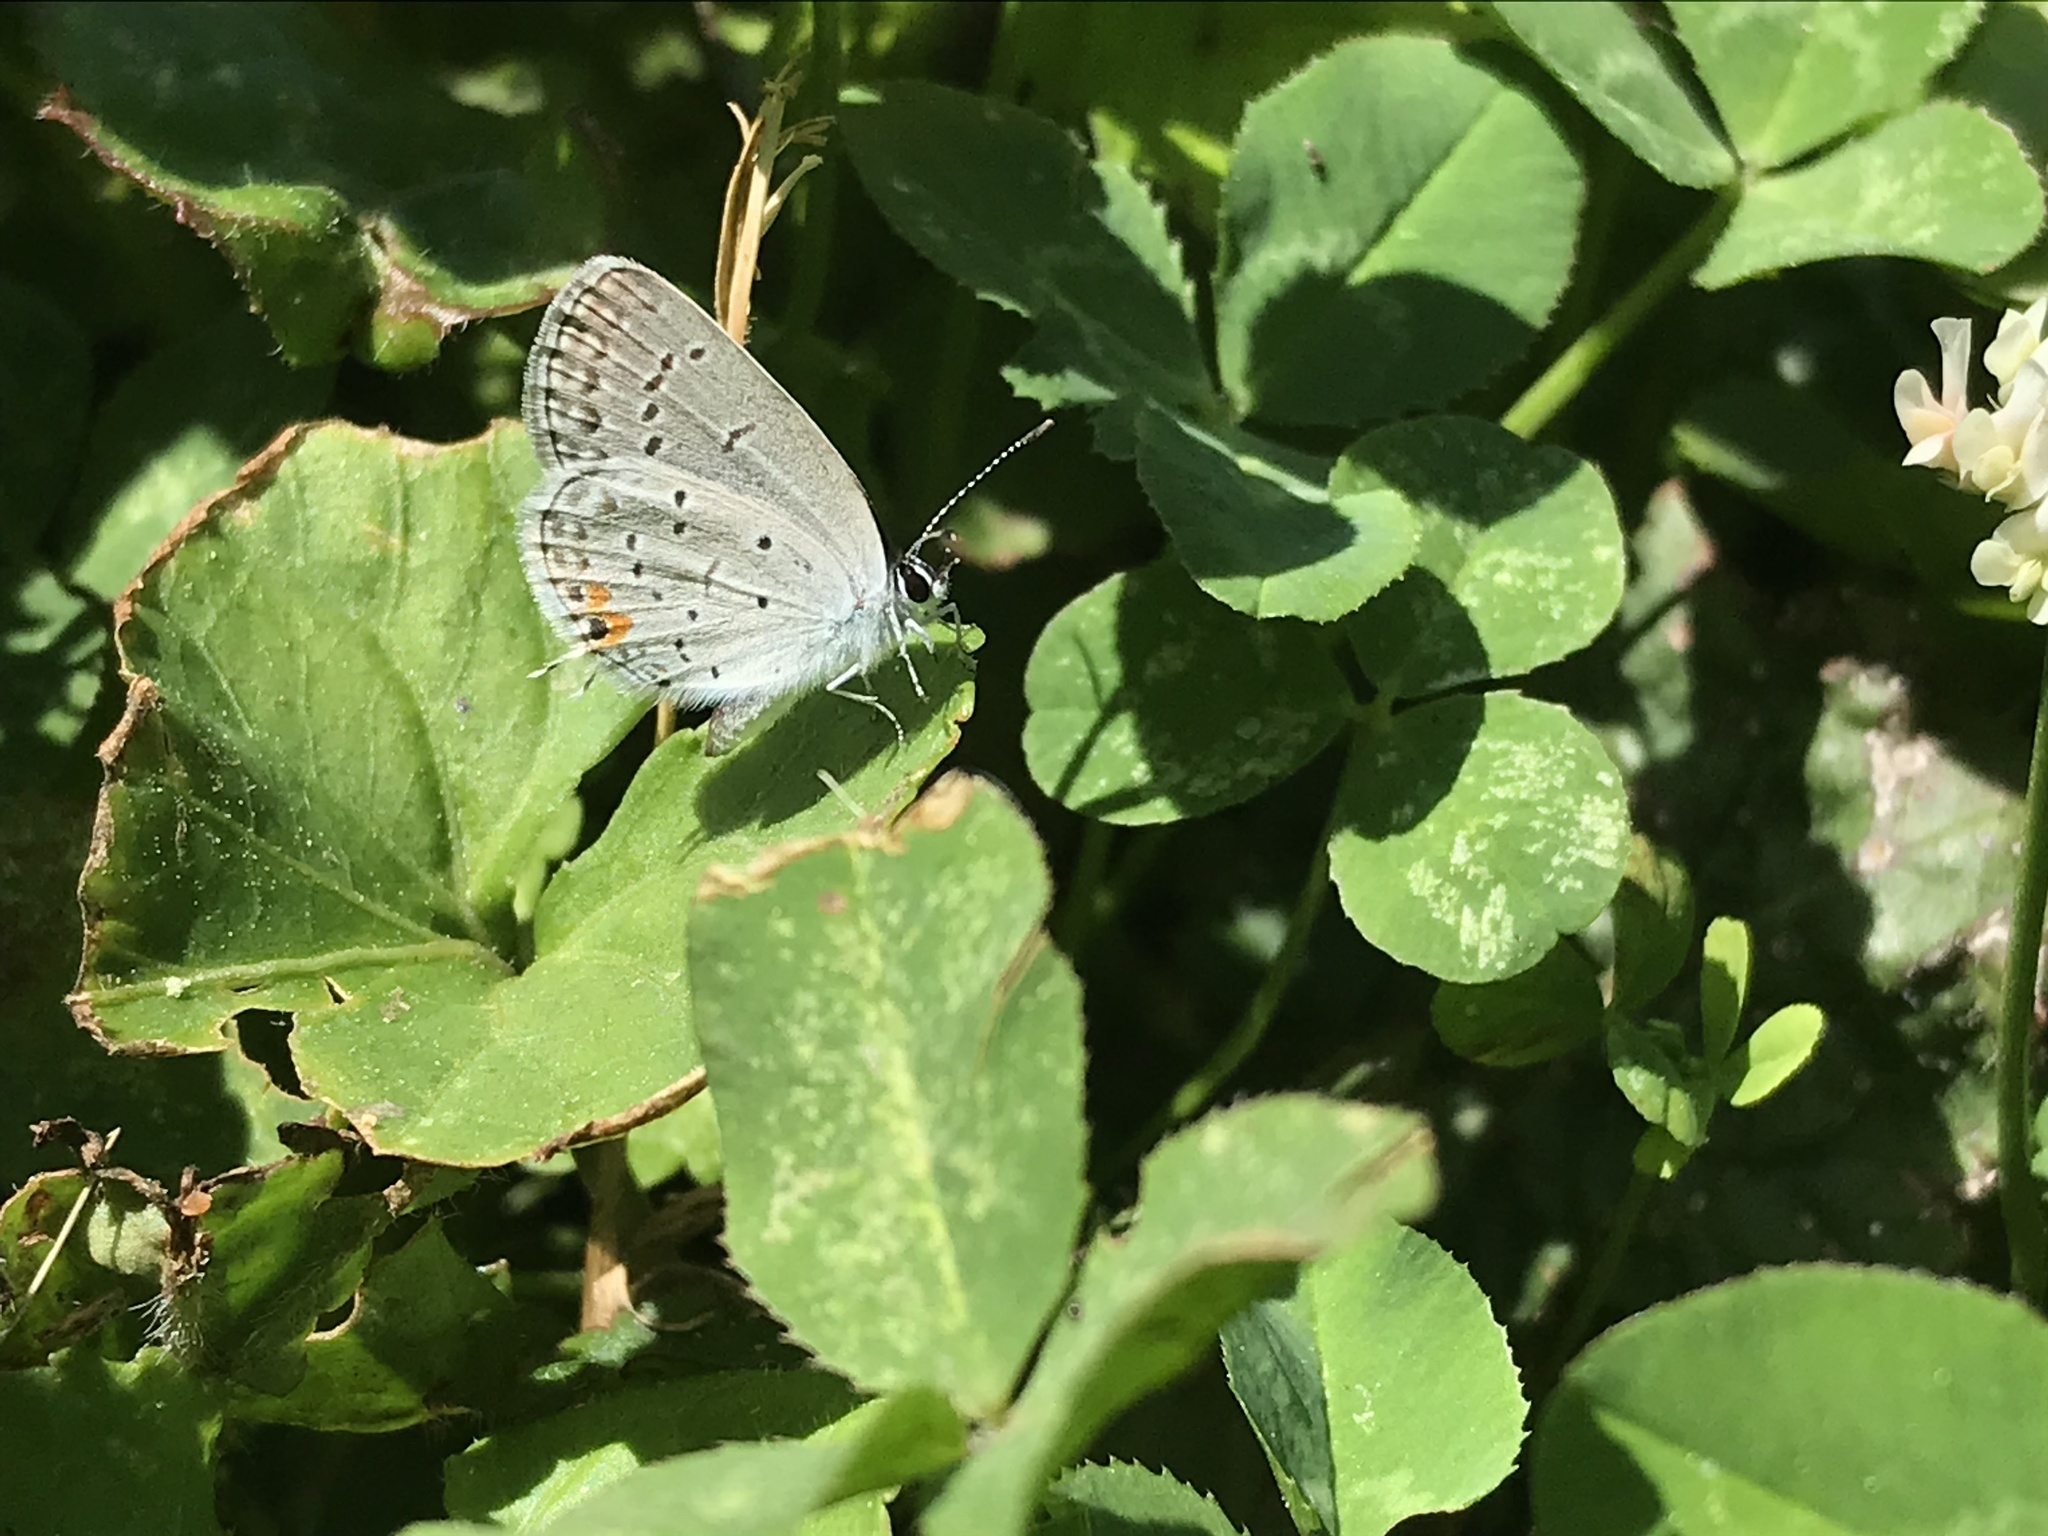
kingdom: Animalia
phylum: Arthropoda
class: Insecta
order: Lepidoptera
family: Lycaenidae
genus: Elkalyce
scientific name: Elkalyce comyntas
